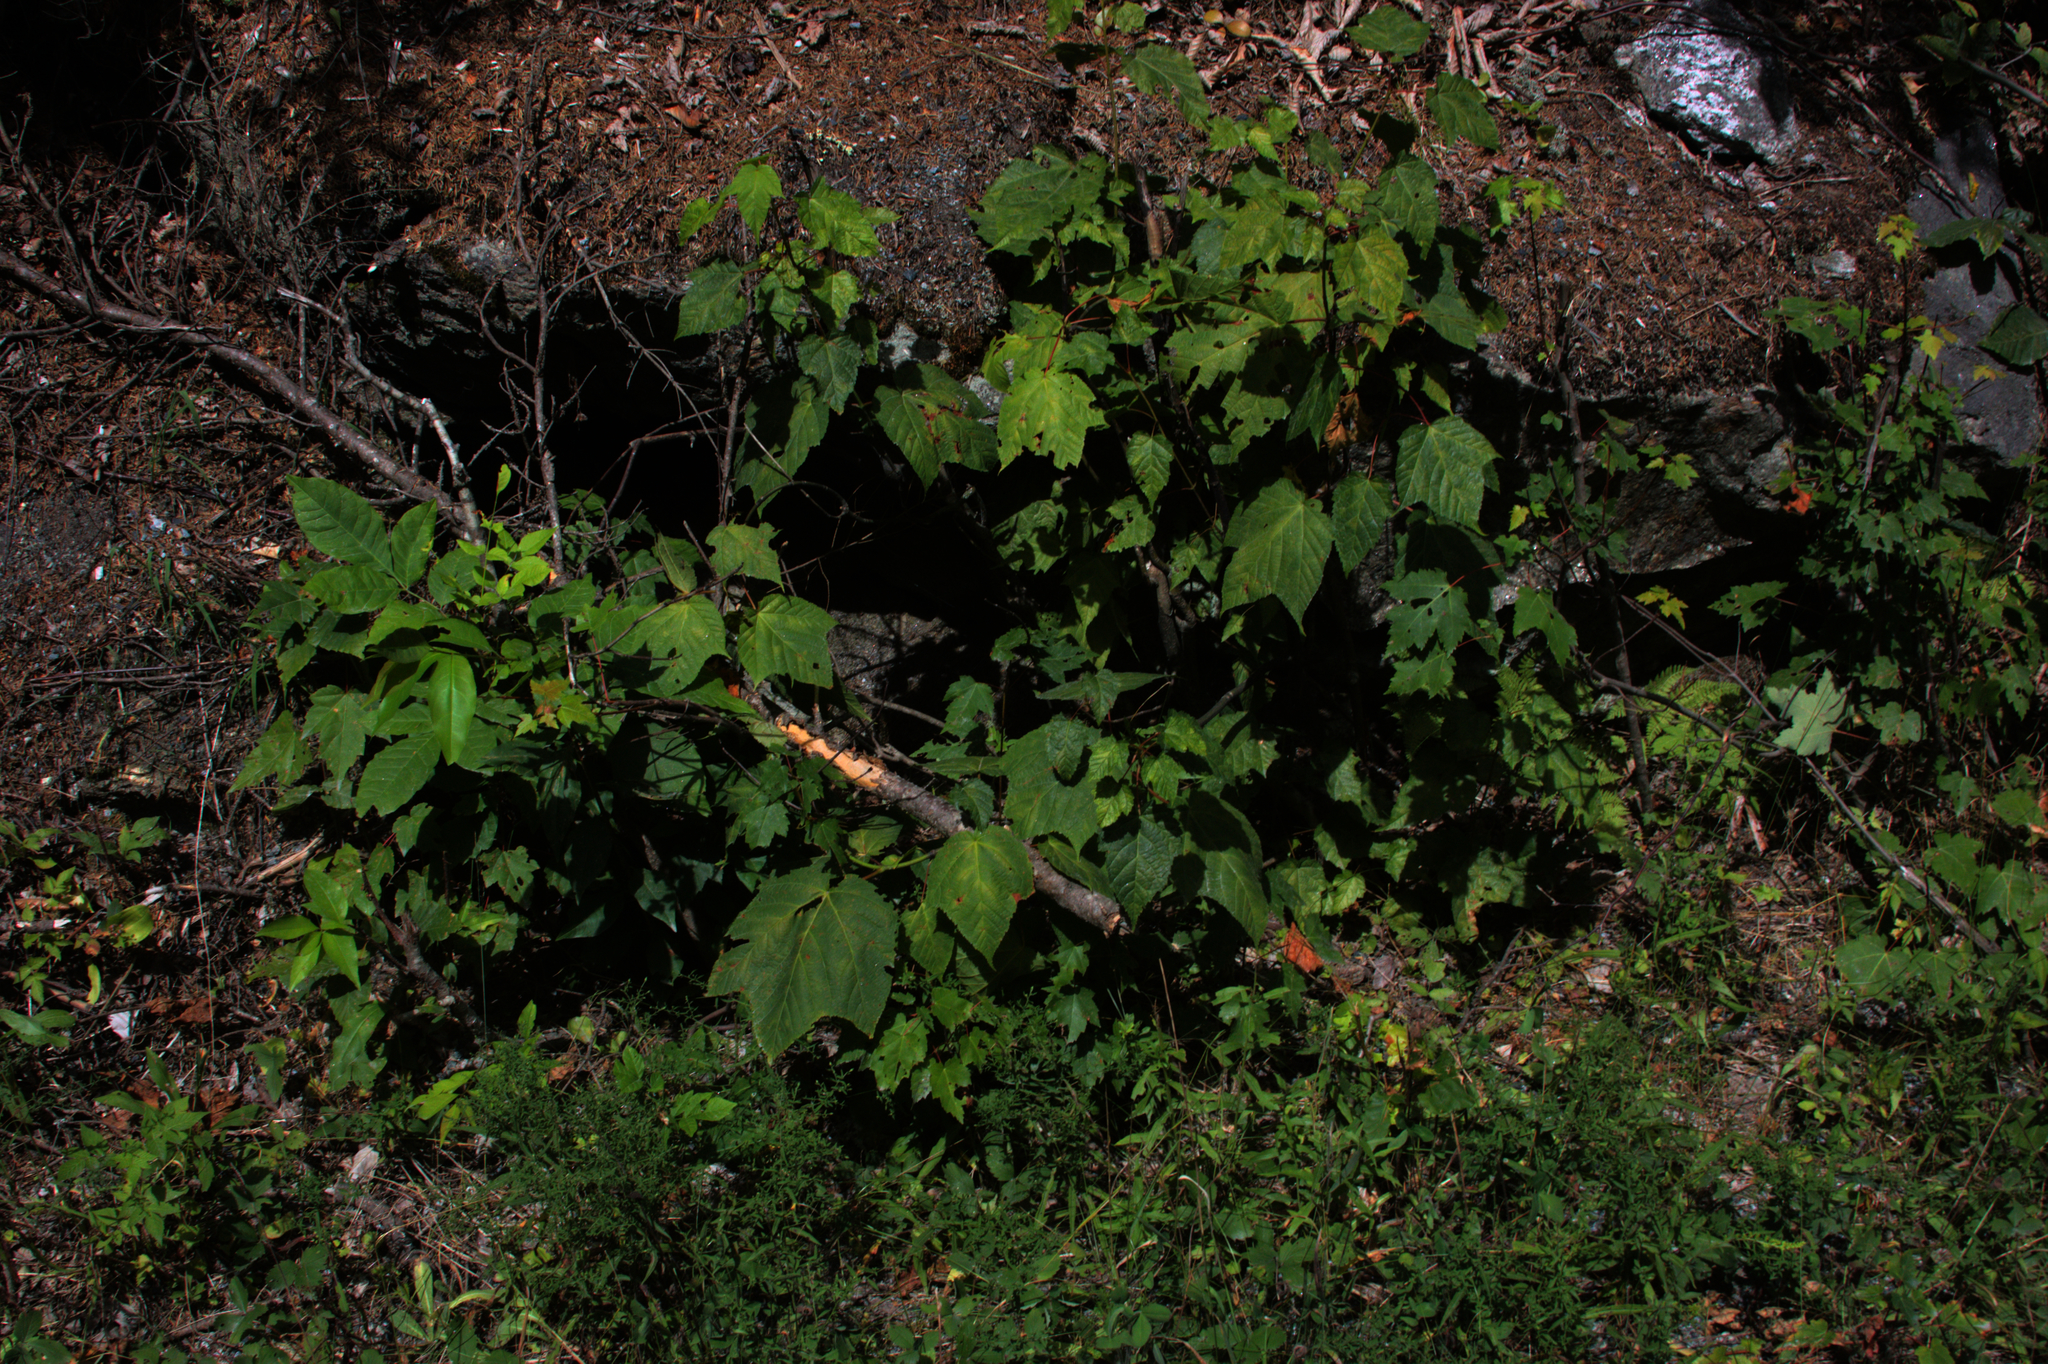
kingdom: Plantae
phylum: Tracheophyta
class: Magnoliopsida
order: Sapindales
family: Sapindaceae
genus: Acer
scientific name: Acer pensylvanicum
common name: Moosewood
